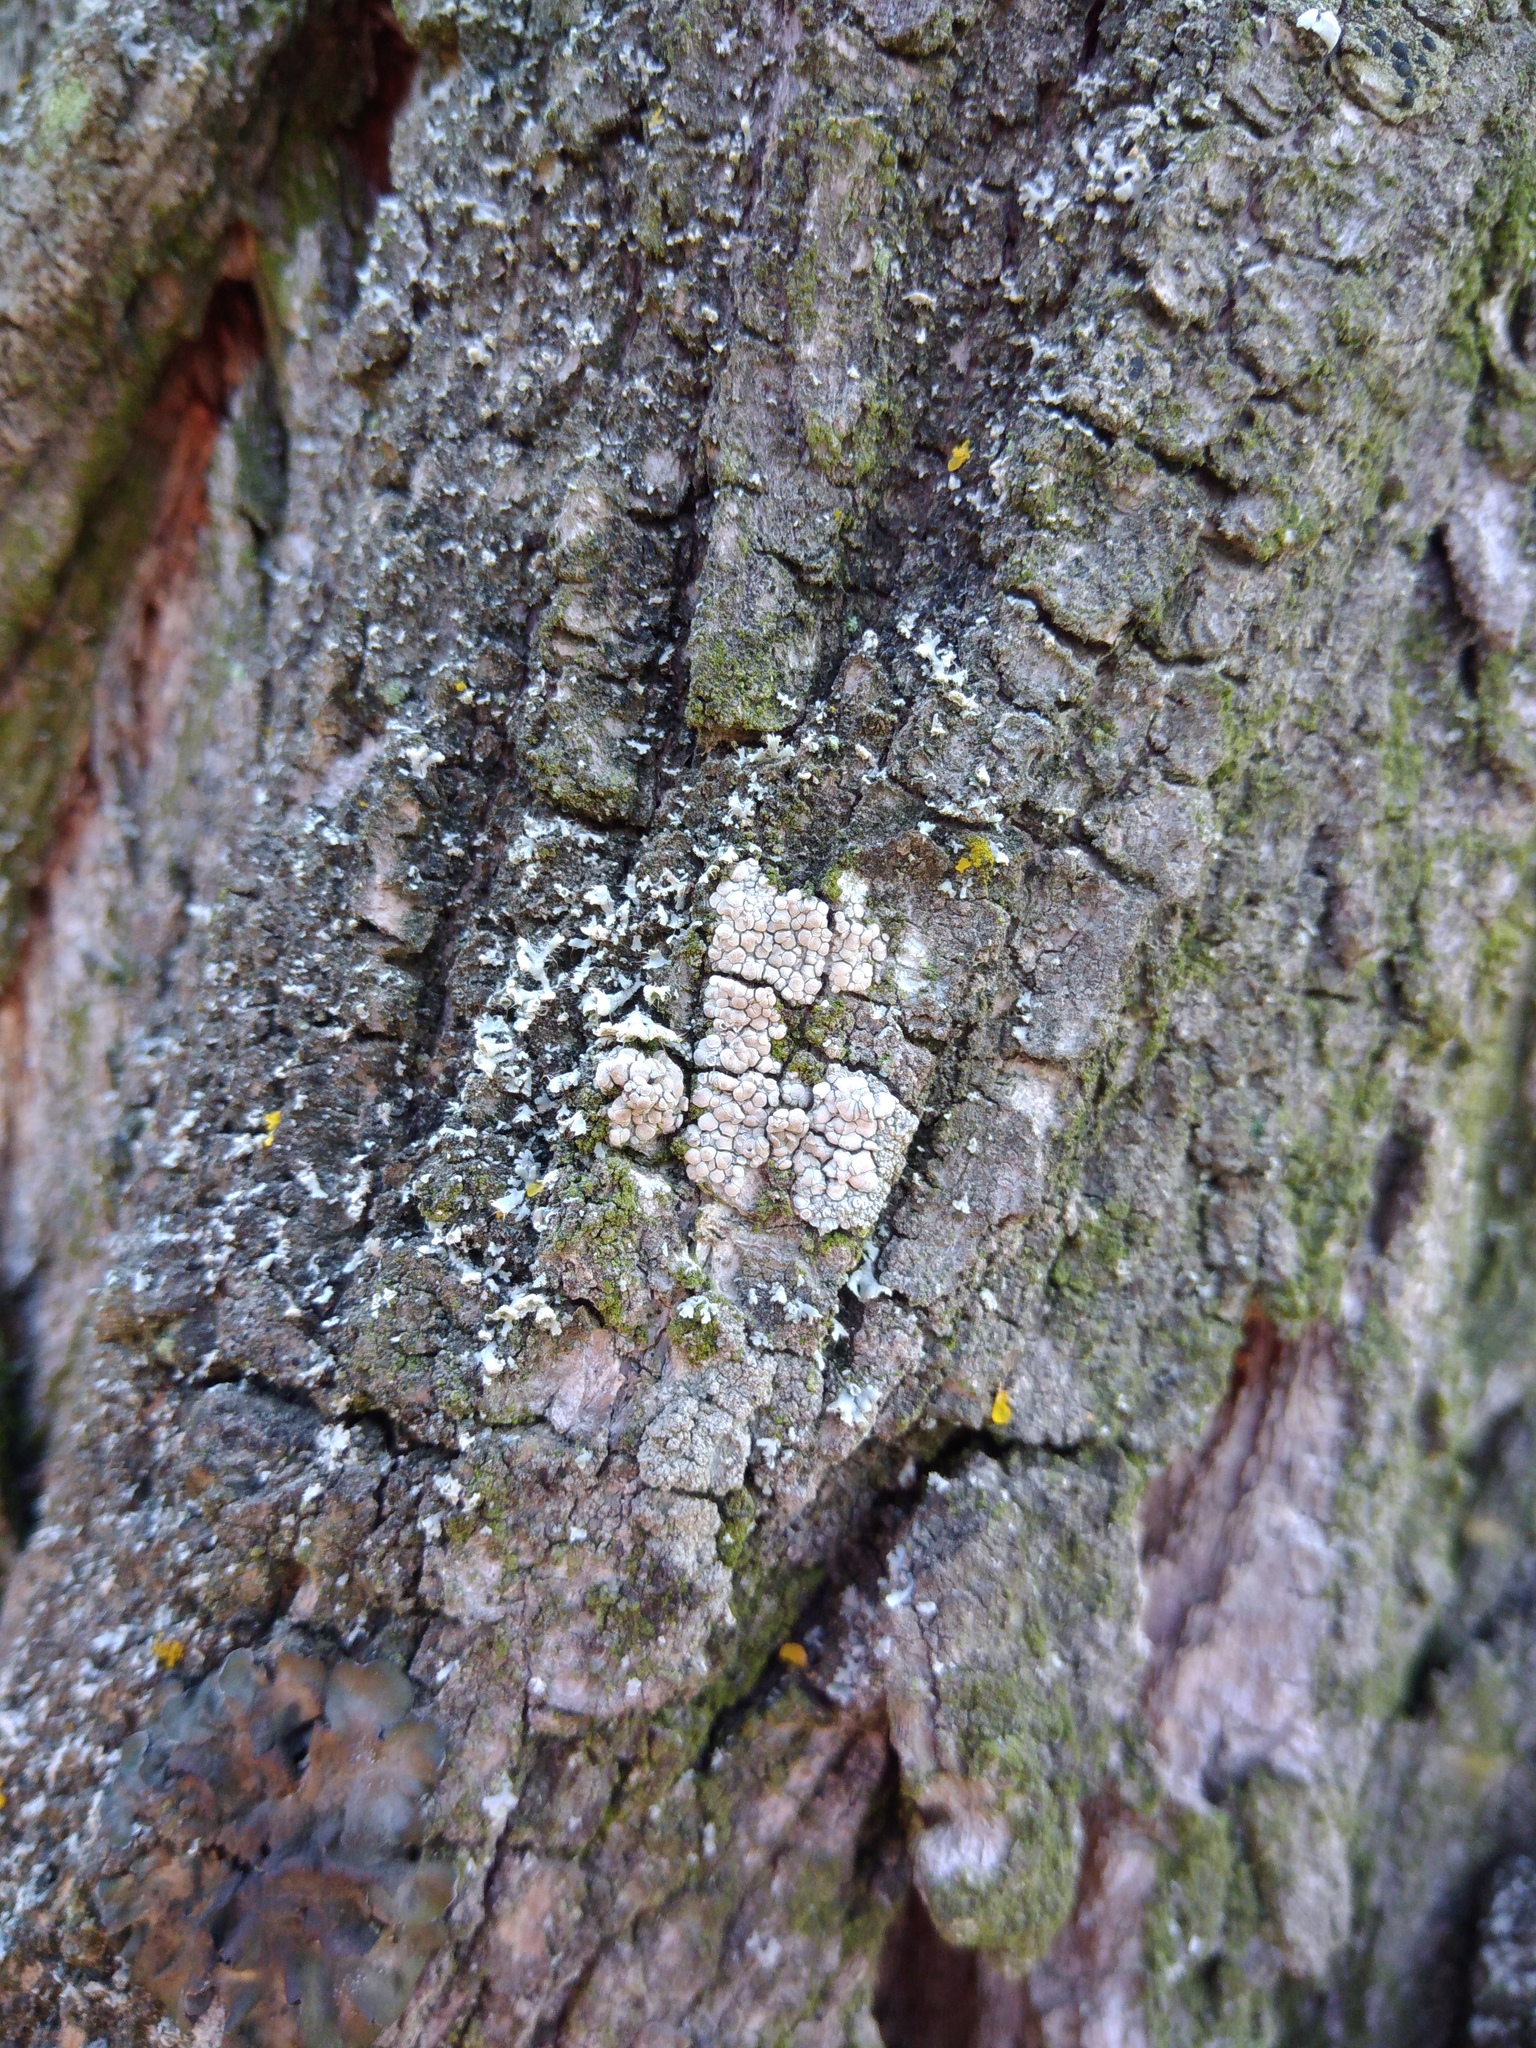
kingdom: Fungi
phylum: Ascomycota
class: Lecanoromycetes
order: Lecanorales
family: Lecanoraceae
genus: Glaucomaria
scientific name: Glaucomaria carpinea
